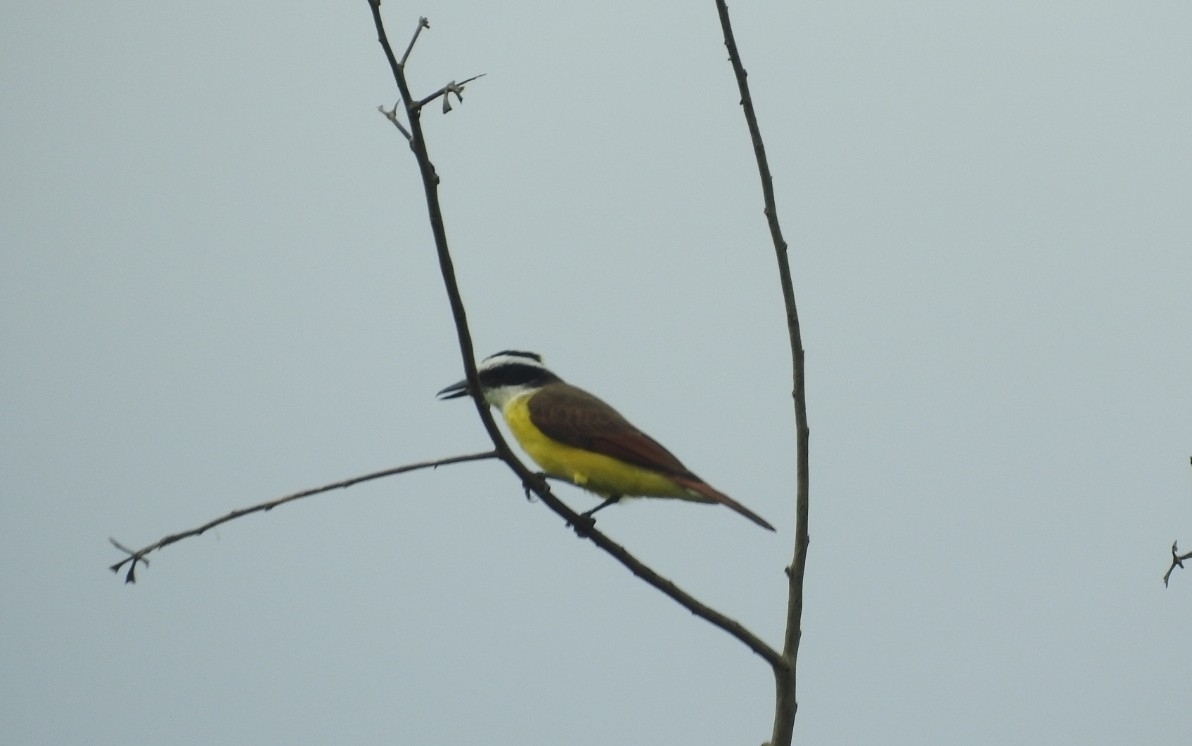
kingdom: Animalia
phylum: Chordata
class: Aves
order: Passeriformes
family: Tyrannidae
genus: Pitangus
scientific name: Pitangus sulphuratus
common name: Great kiskadee
